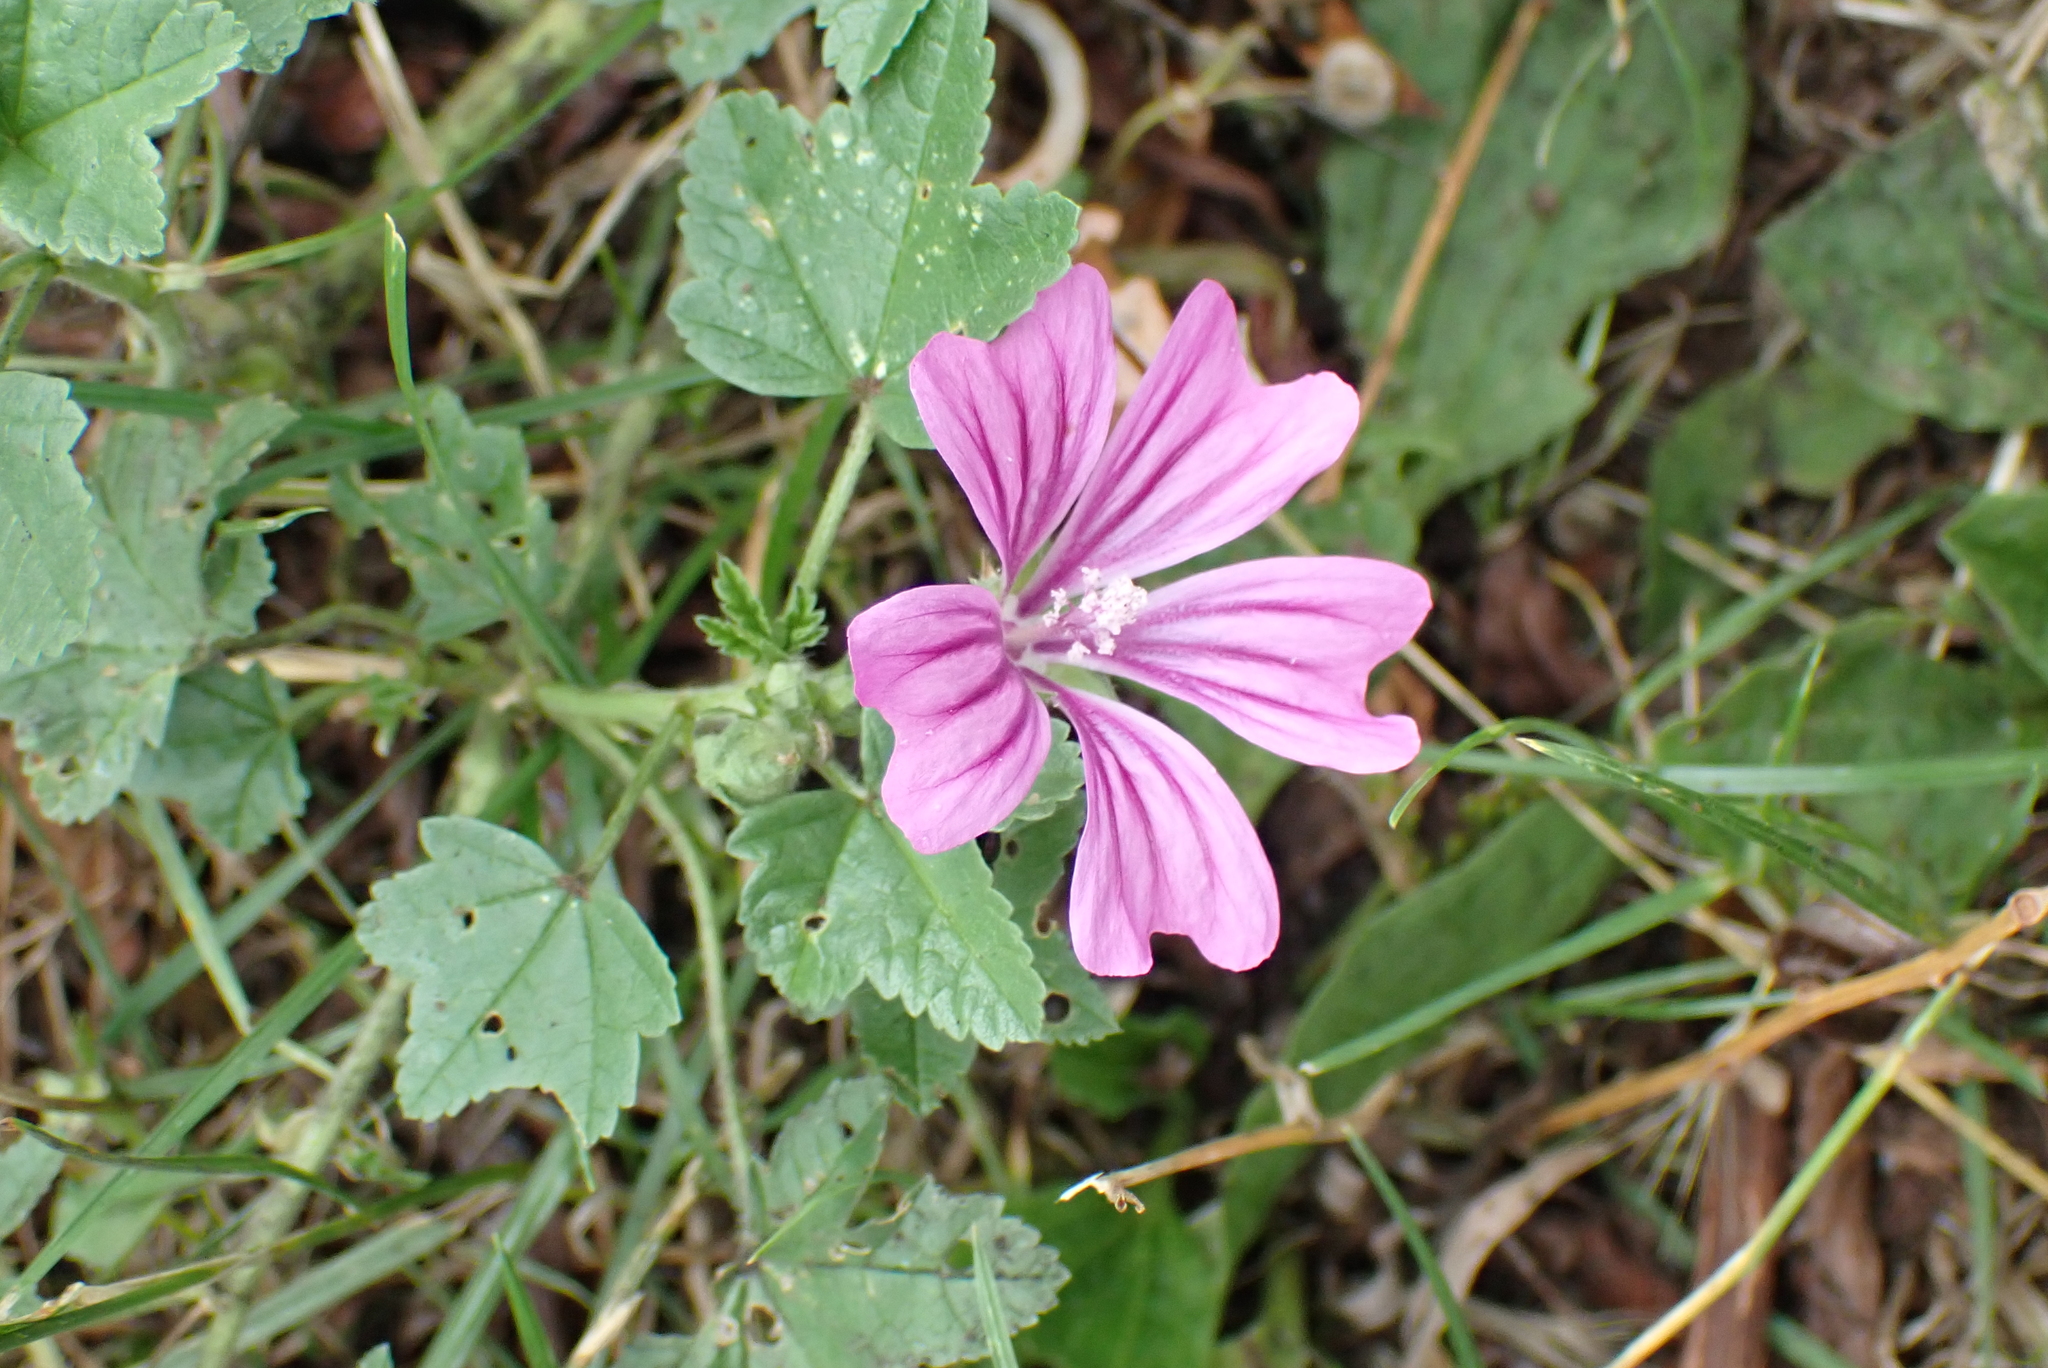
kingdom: Plantae
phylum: Tracheophyta
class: Magnoliopsida
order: Malvales
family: Malvaceae
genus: Malva
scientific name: Malva sylvestris
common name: Common mallow
